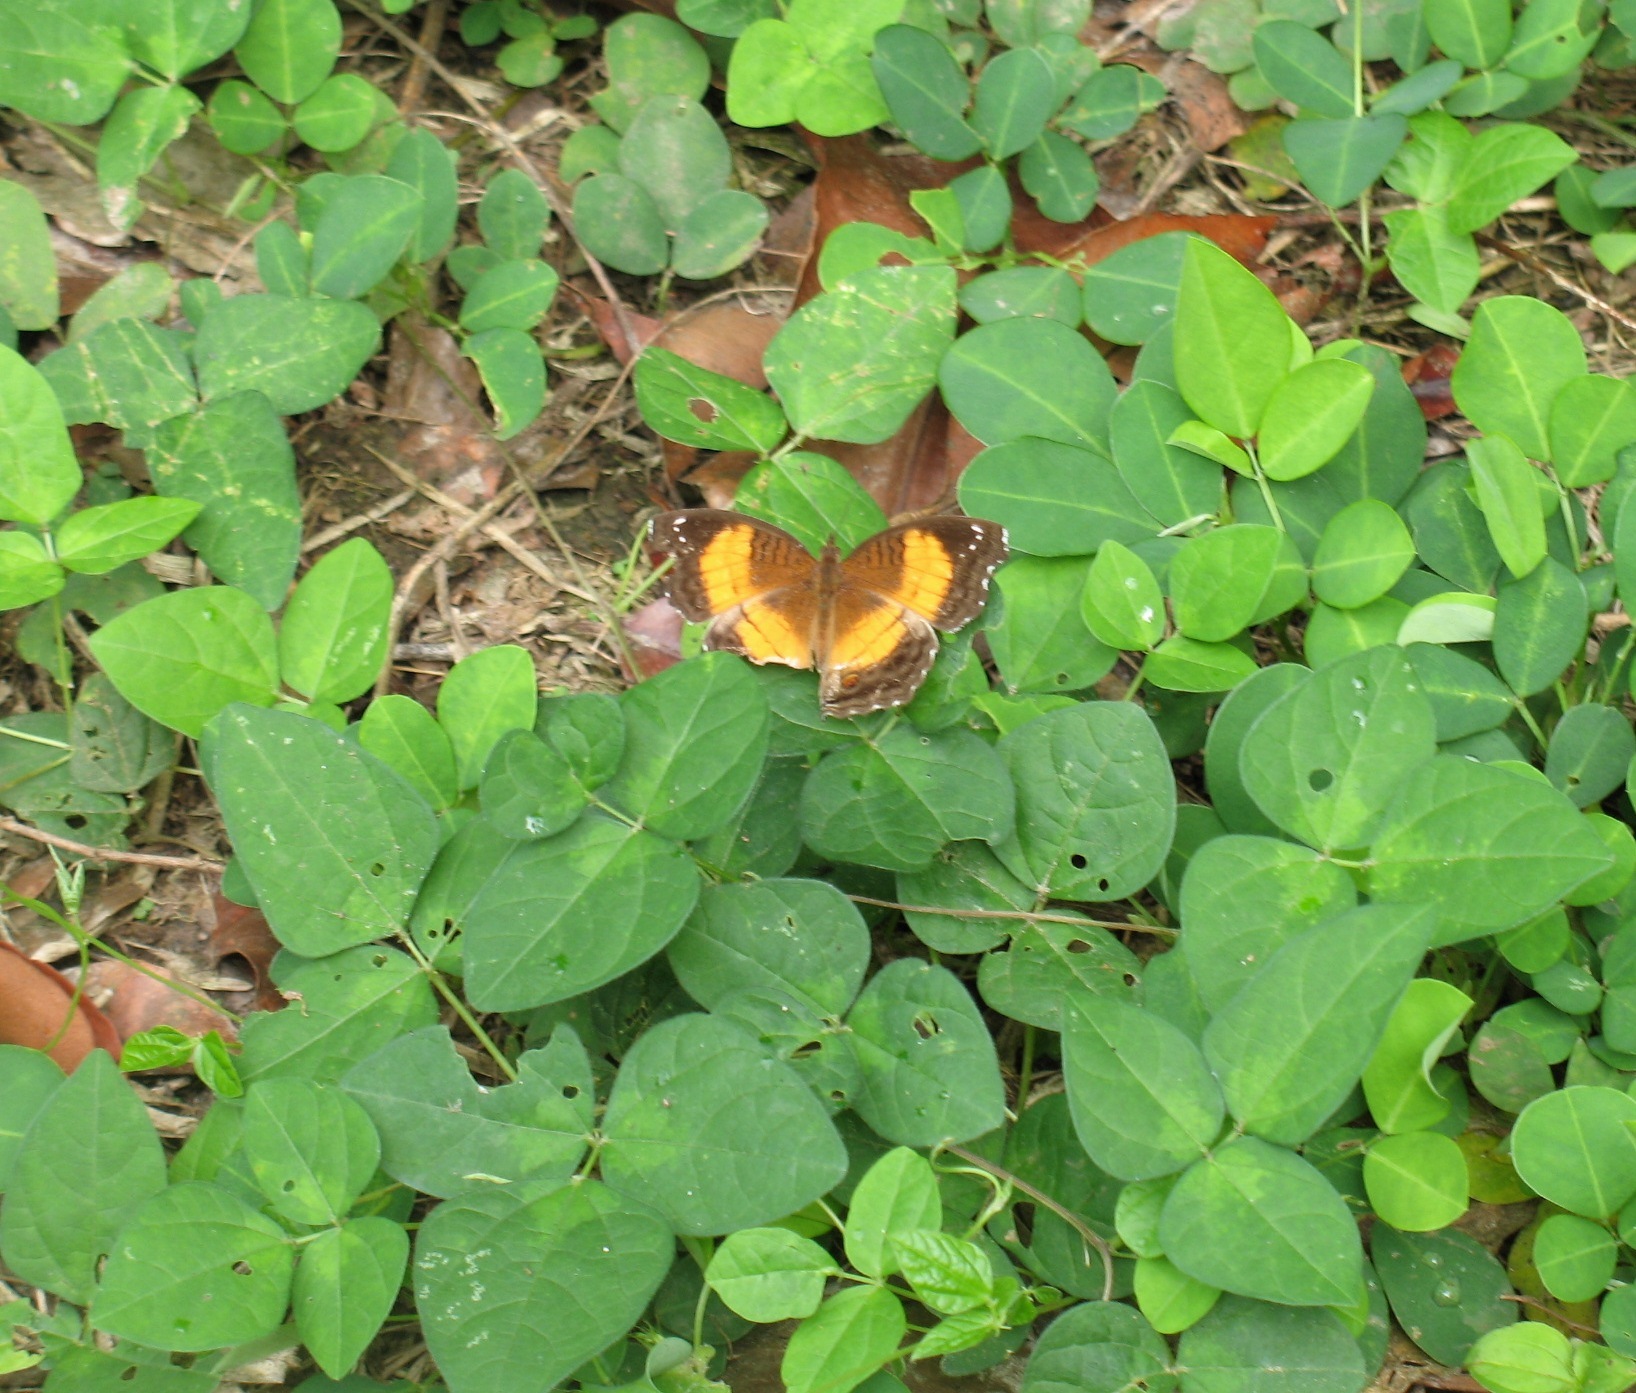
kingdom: Animalia
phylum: Arthropoda
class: Insecta
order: Lepidoptera
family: Nymphalidae
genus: Junonia
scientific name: Junonia terea
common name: Soldier pansy
